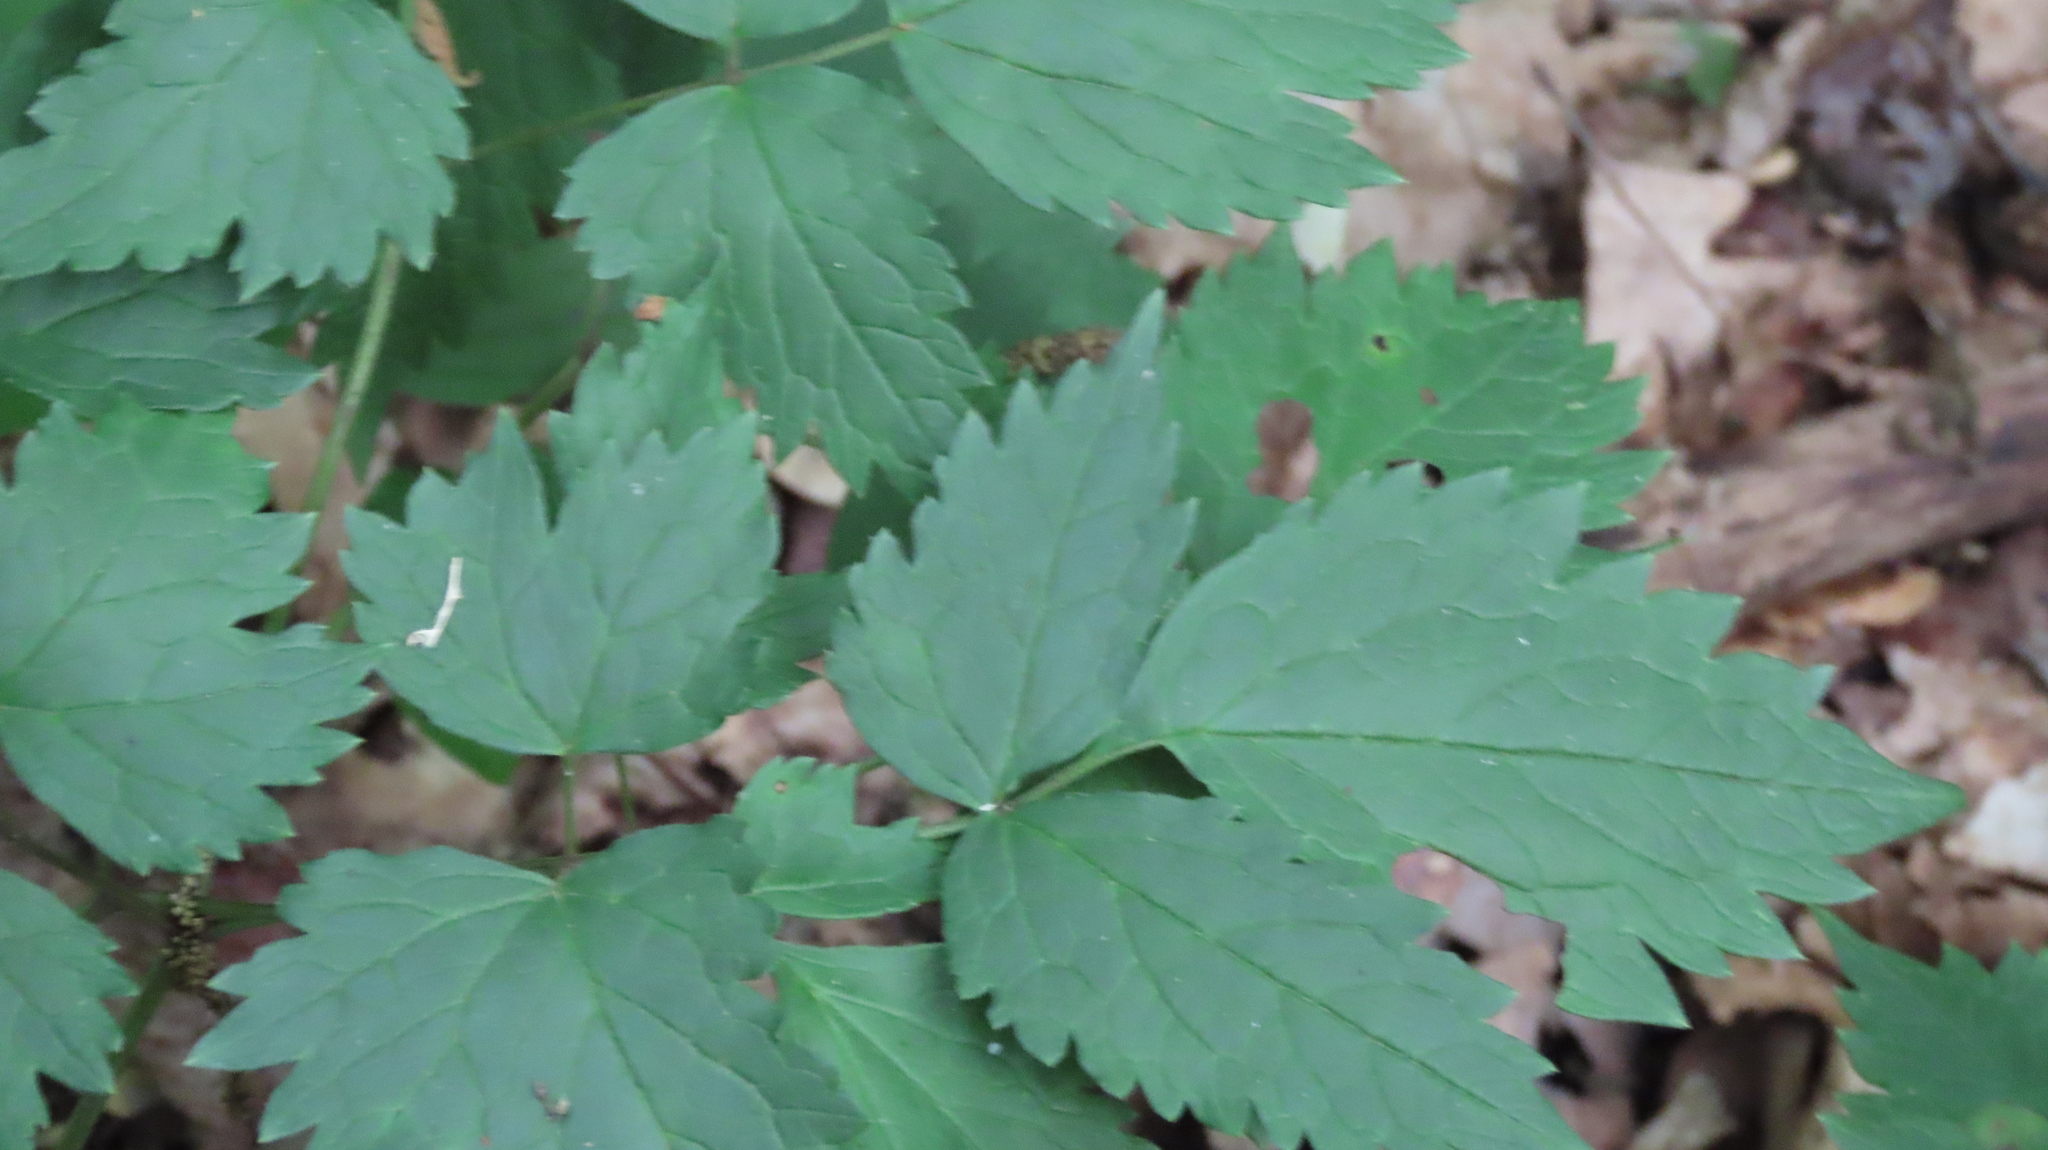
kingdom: Plantae
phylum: Tracheophyta
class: Magnoliopsida
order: Ranunculales
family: Ranunculaceae
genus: Actaea
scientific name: Actaea rubra
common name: Red baneberry
